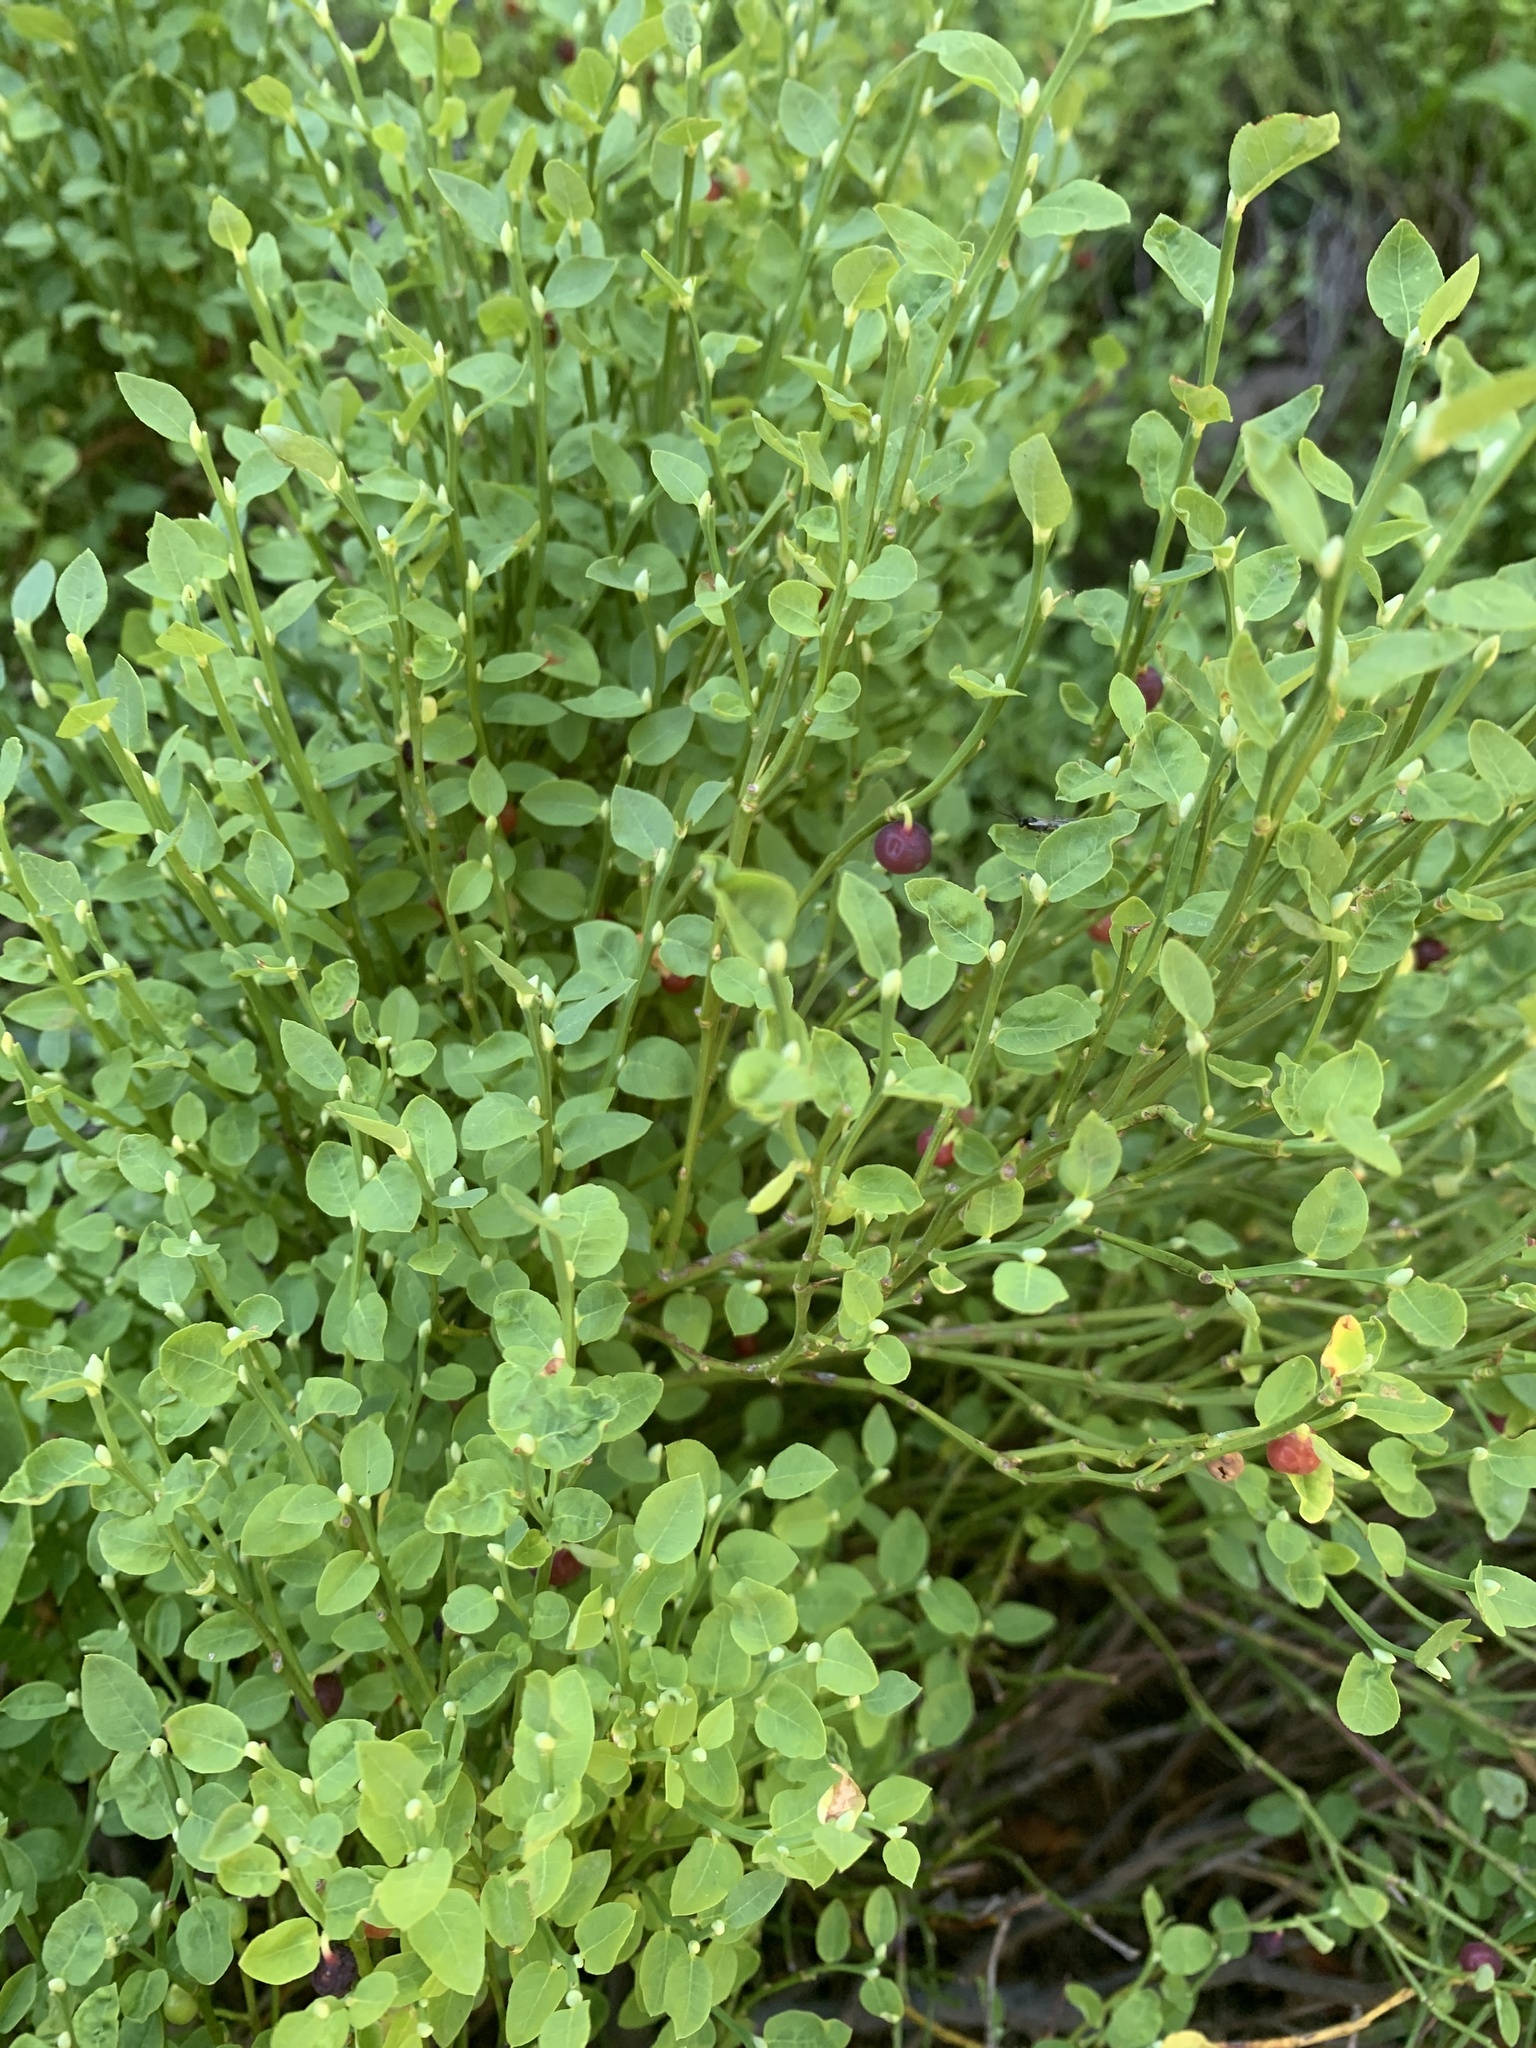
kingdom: Plantae
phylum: Tracheophyta
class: Magnoliopsida
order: Ericales
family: Ericaceae
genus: Vaccinium
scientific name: Vaccinium scoparium
